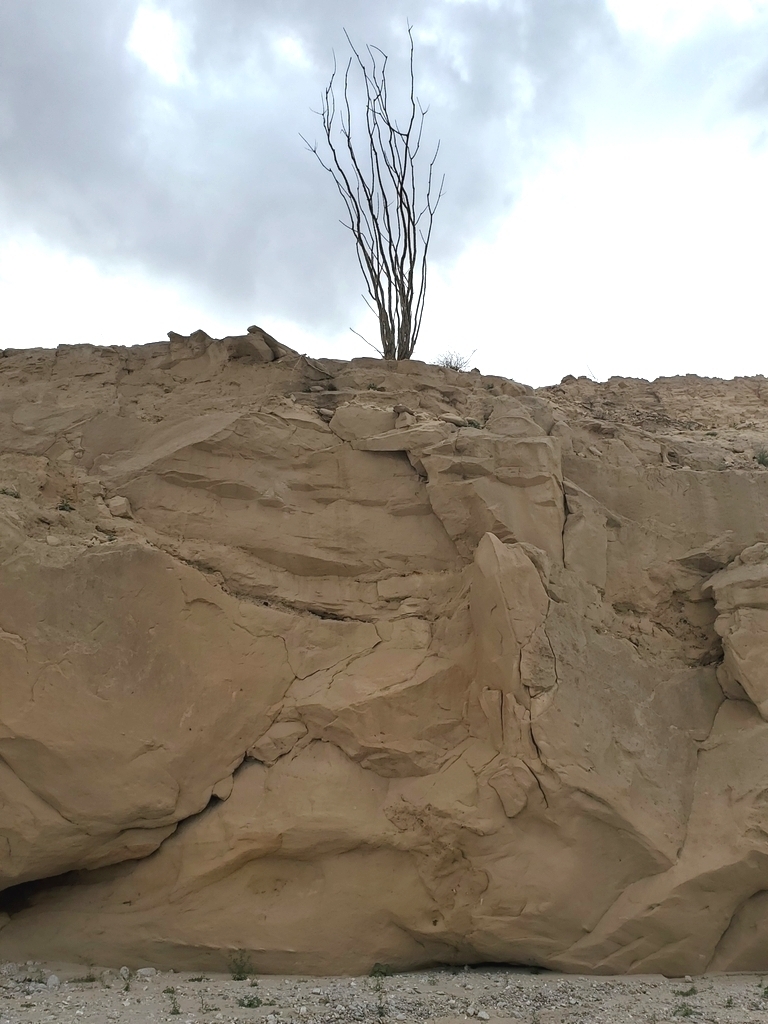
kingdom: Plantae
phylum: Tracheophyta
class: Magnoliopsida
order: Ericales
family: Fouquieriaceae
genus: Fouquieria
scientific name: Fouquieria splendens
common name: Vine-cactus
